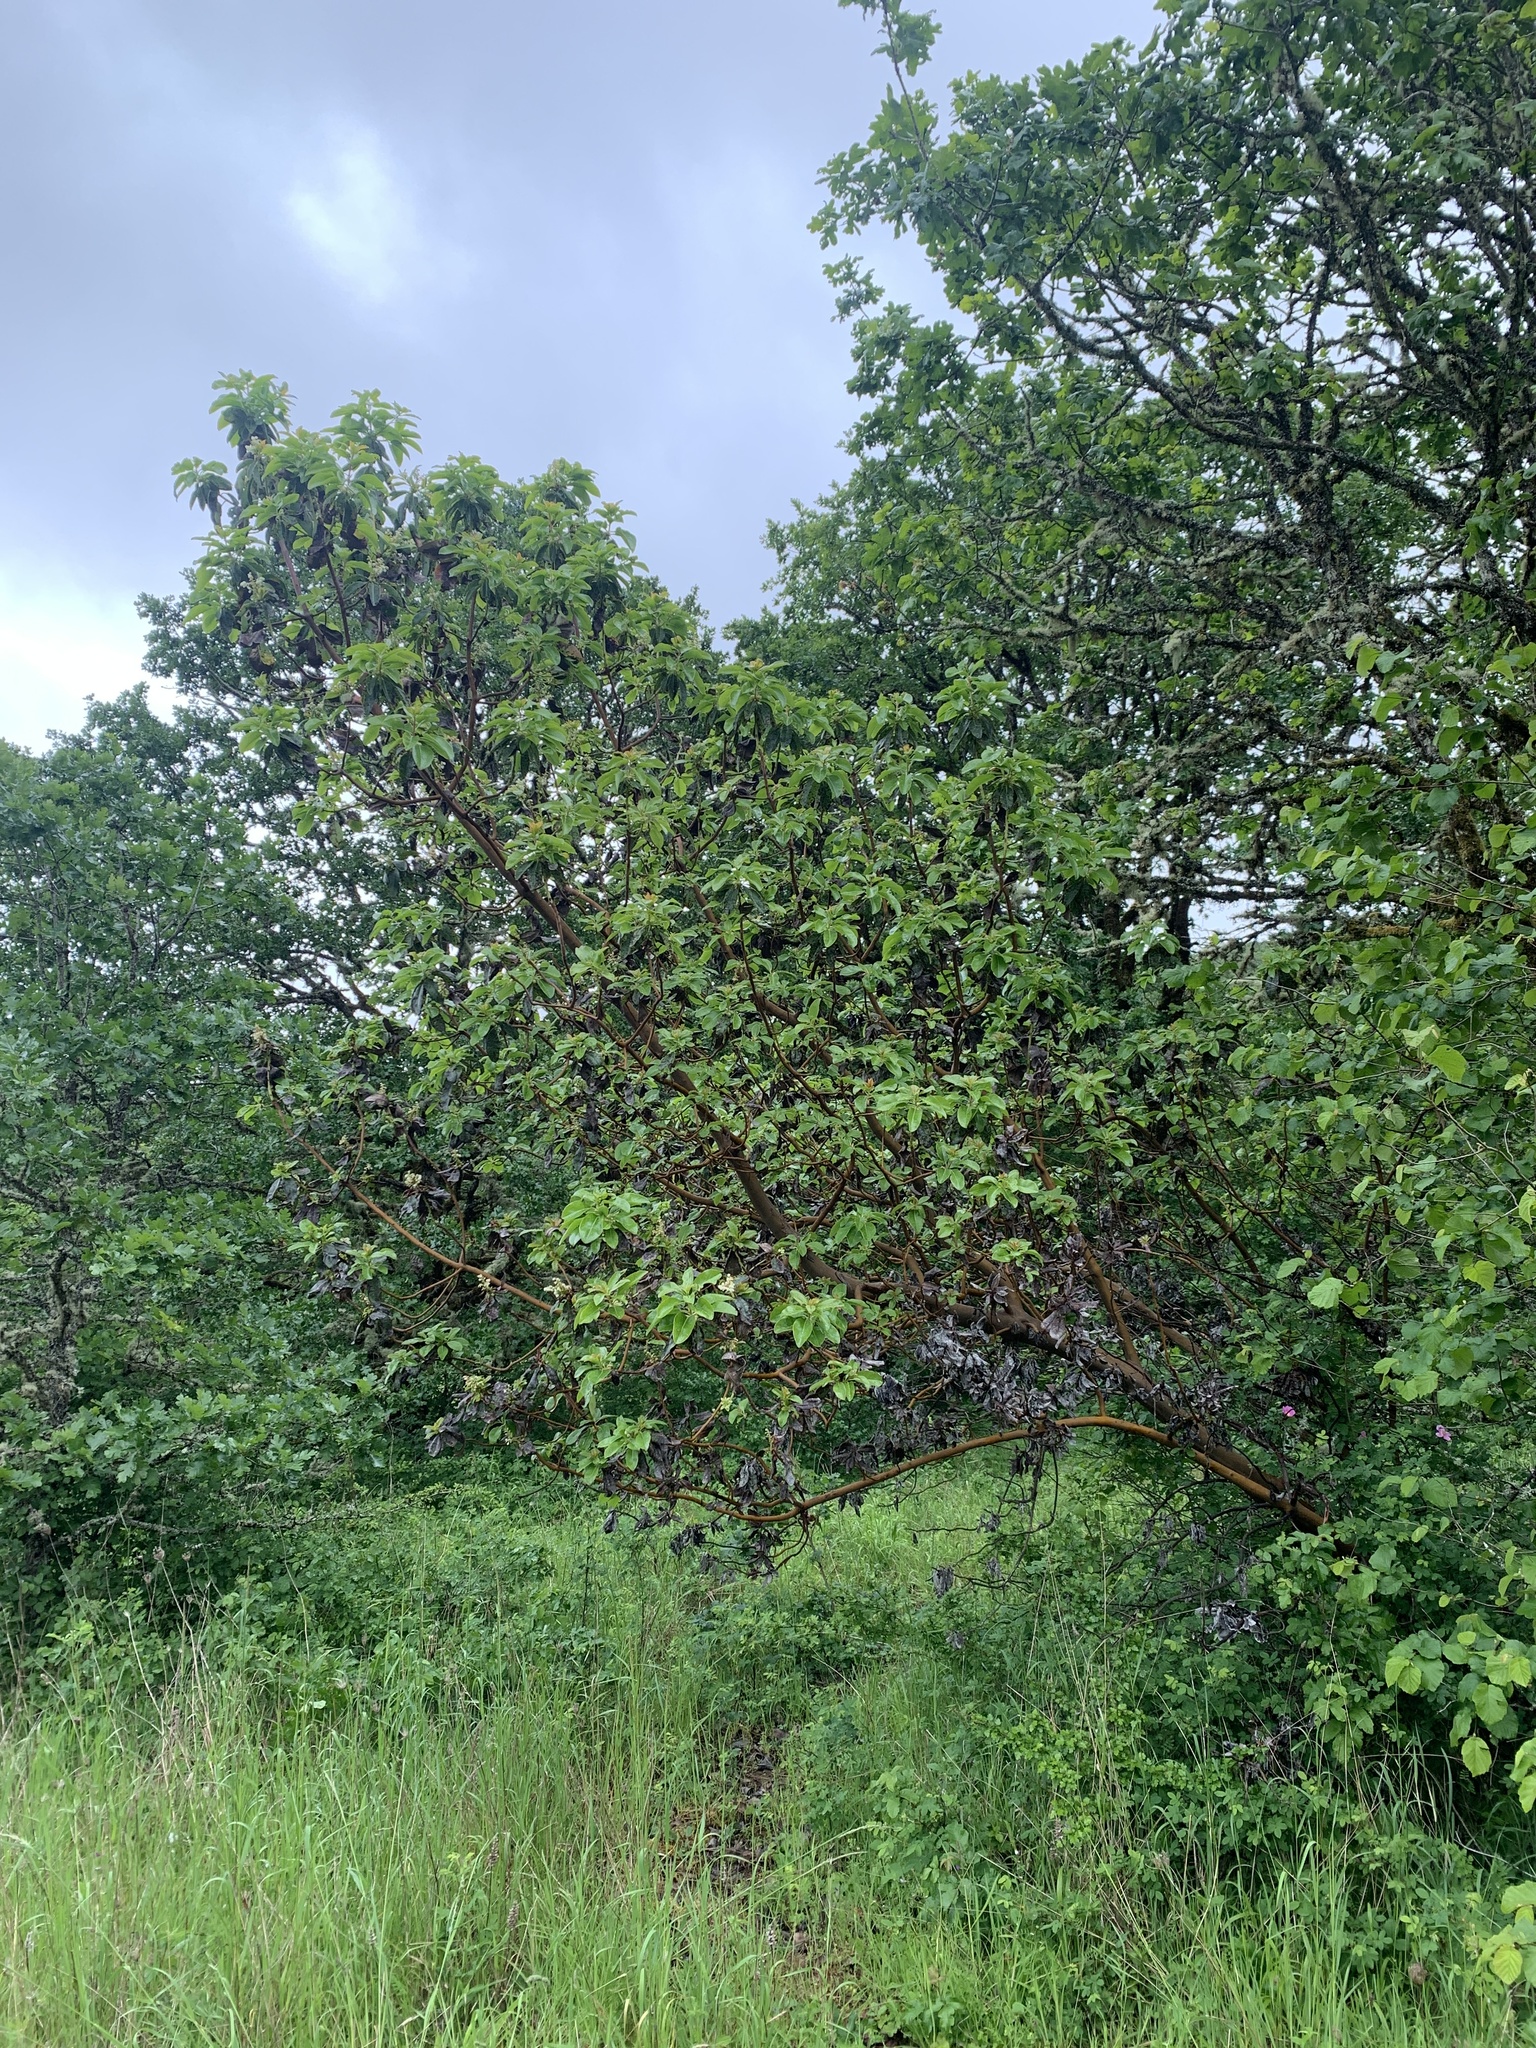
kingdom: Plantae
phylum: Tracheophyta
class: Magnoliopsida
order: Ericales
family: Ericaceae
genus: Arbutus
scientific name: Arbutus menziesii
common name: Pacific madrone
